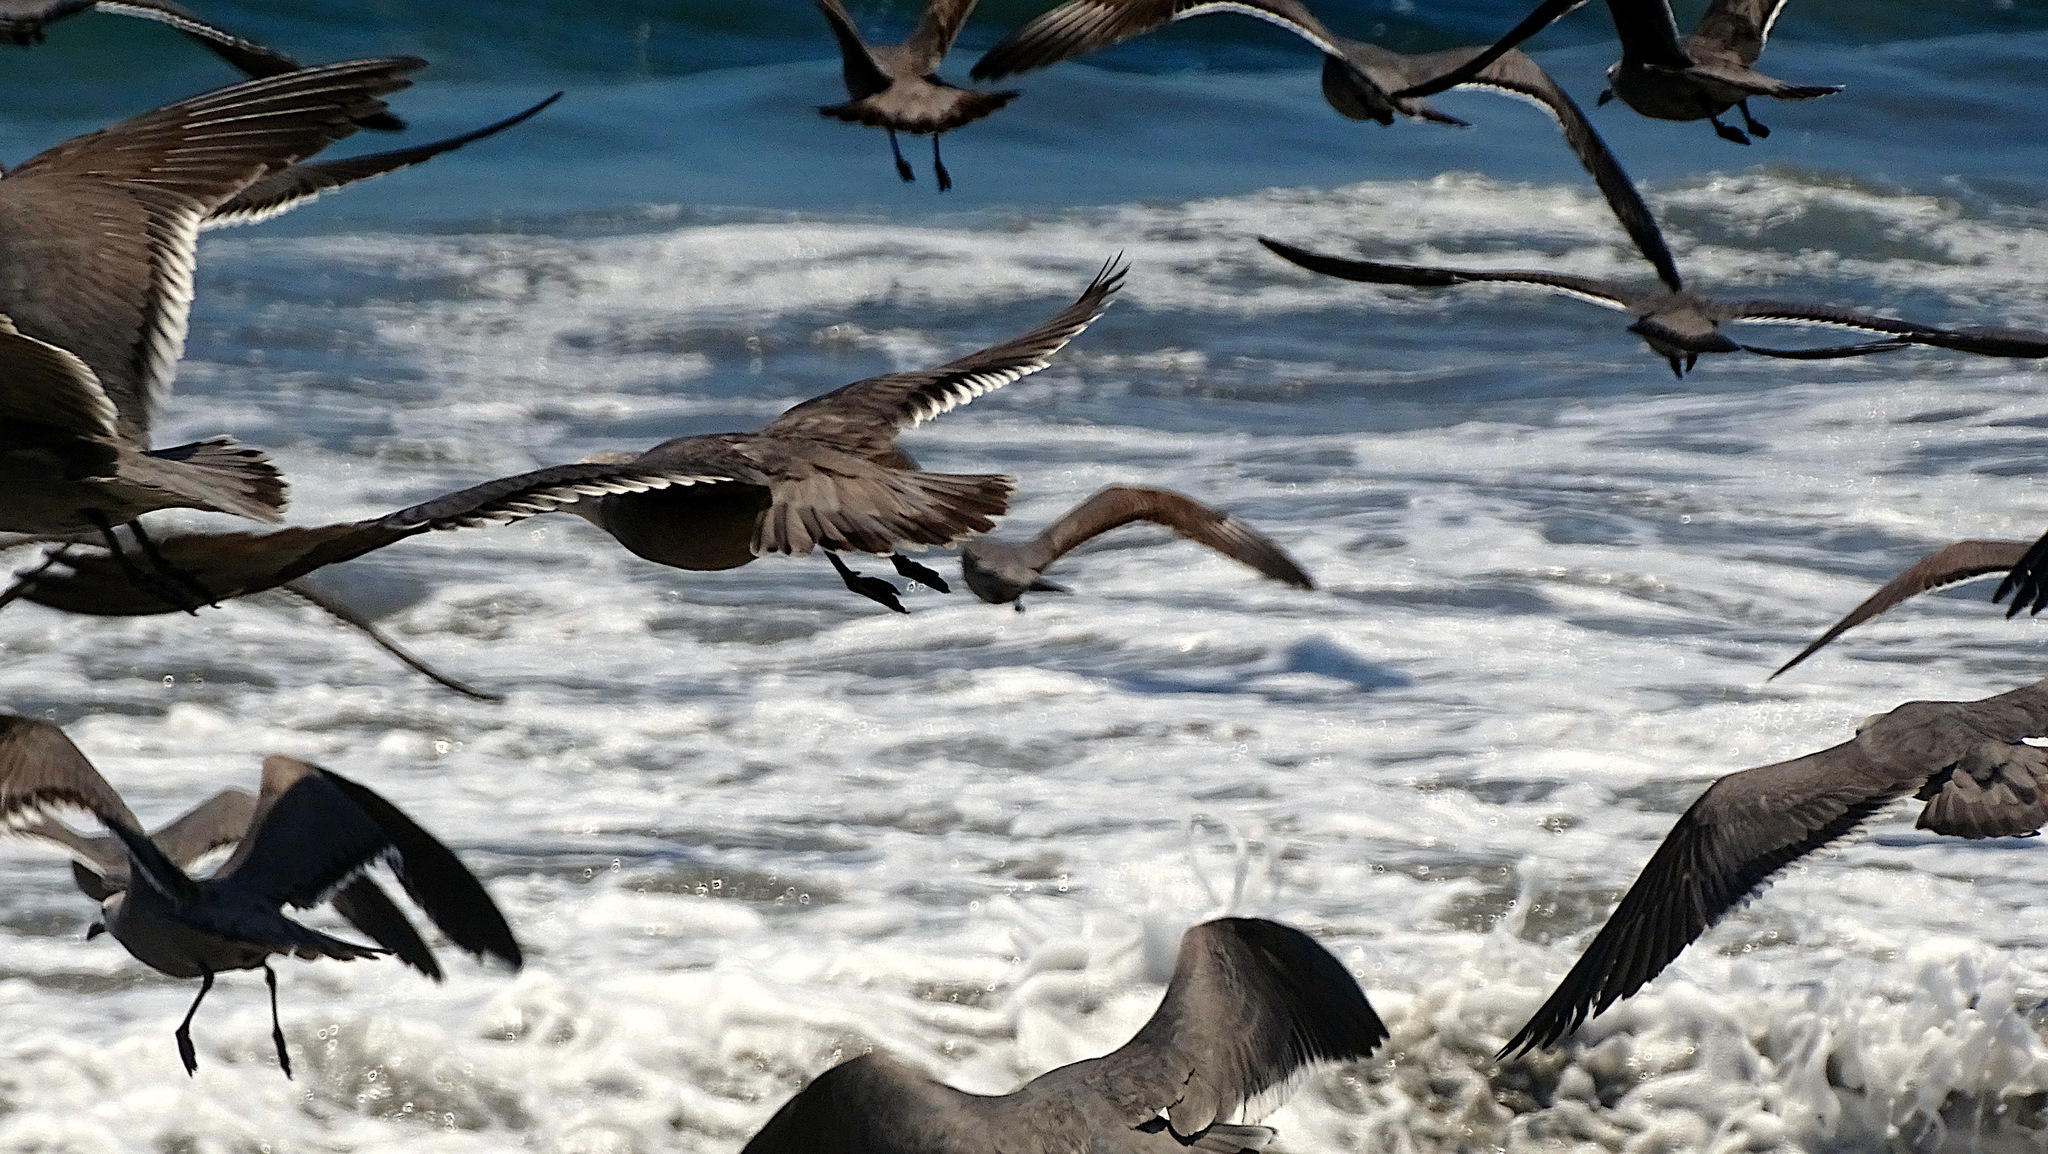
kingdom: Animalia
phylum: Chordata
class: Aves
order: Charadriiformes
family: Laridae
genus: Leucophaeus
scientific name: Leucophaeus modestus
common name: Gray gull
